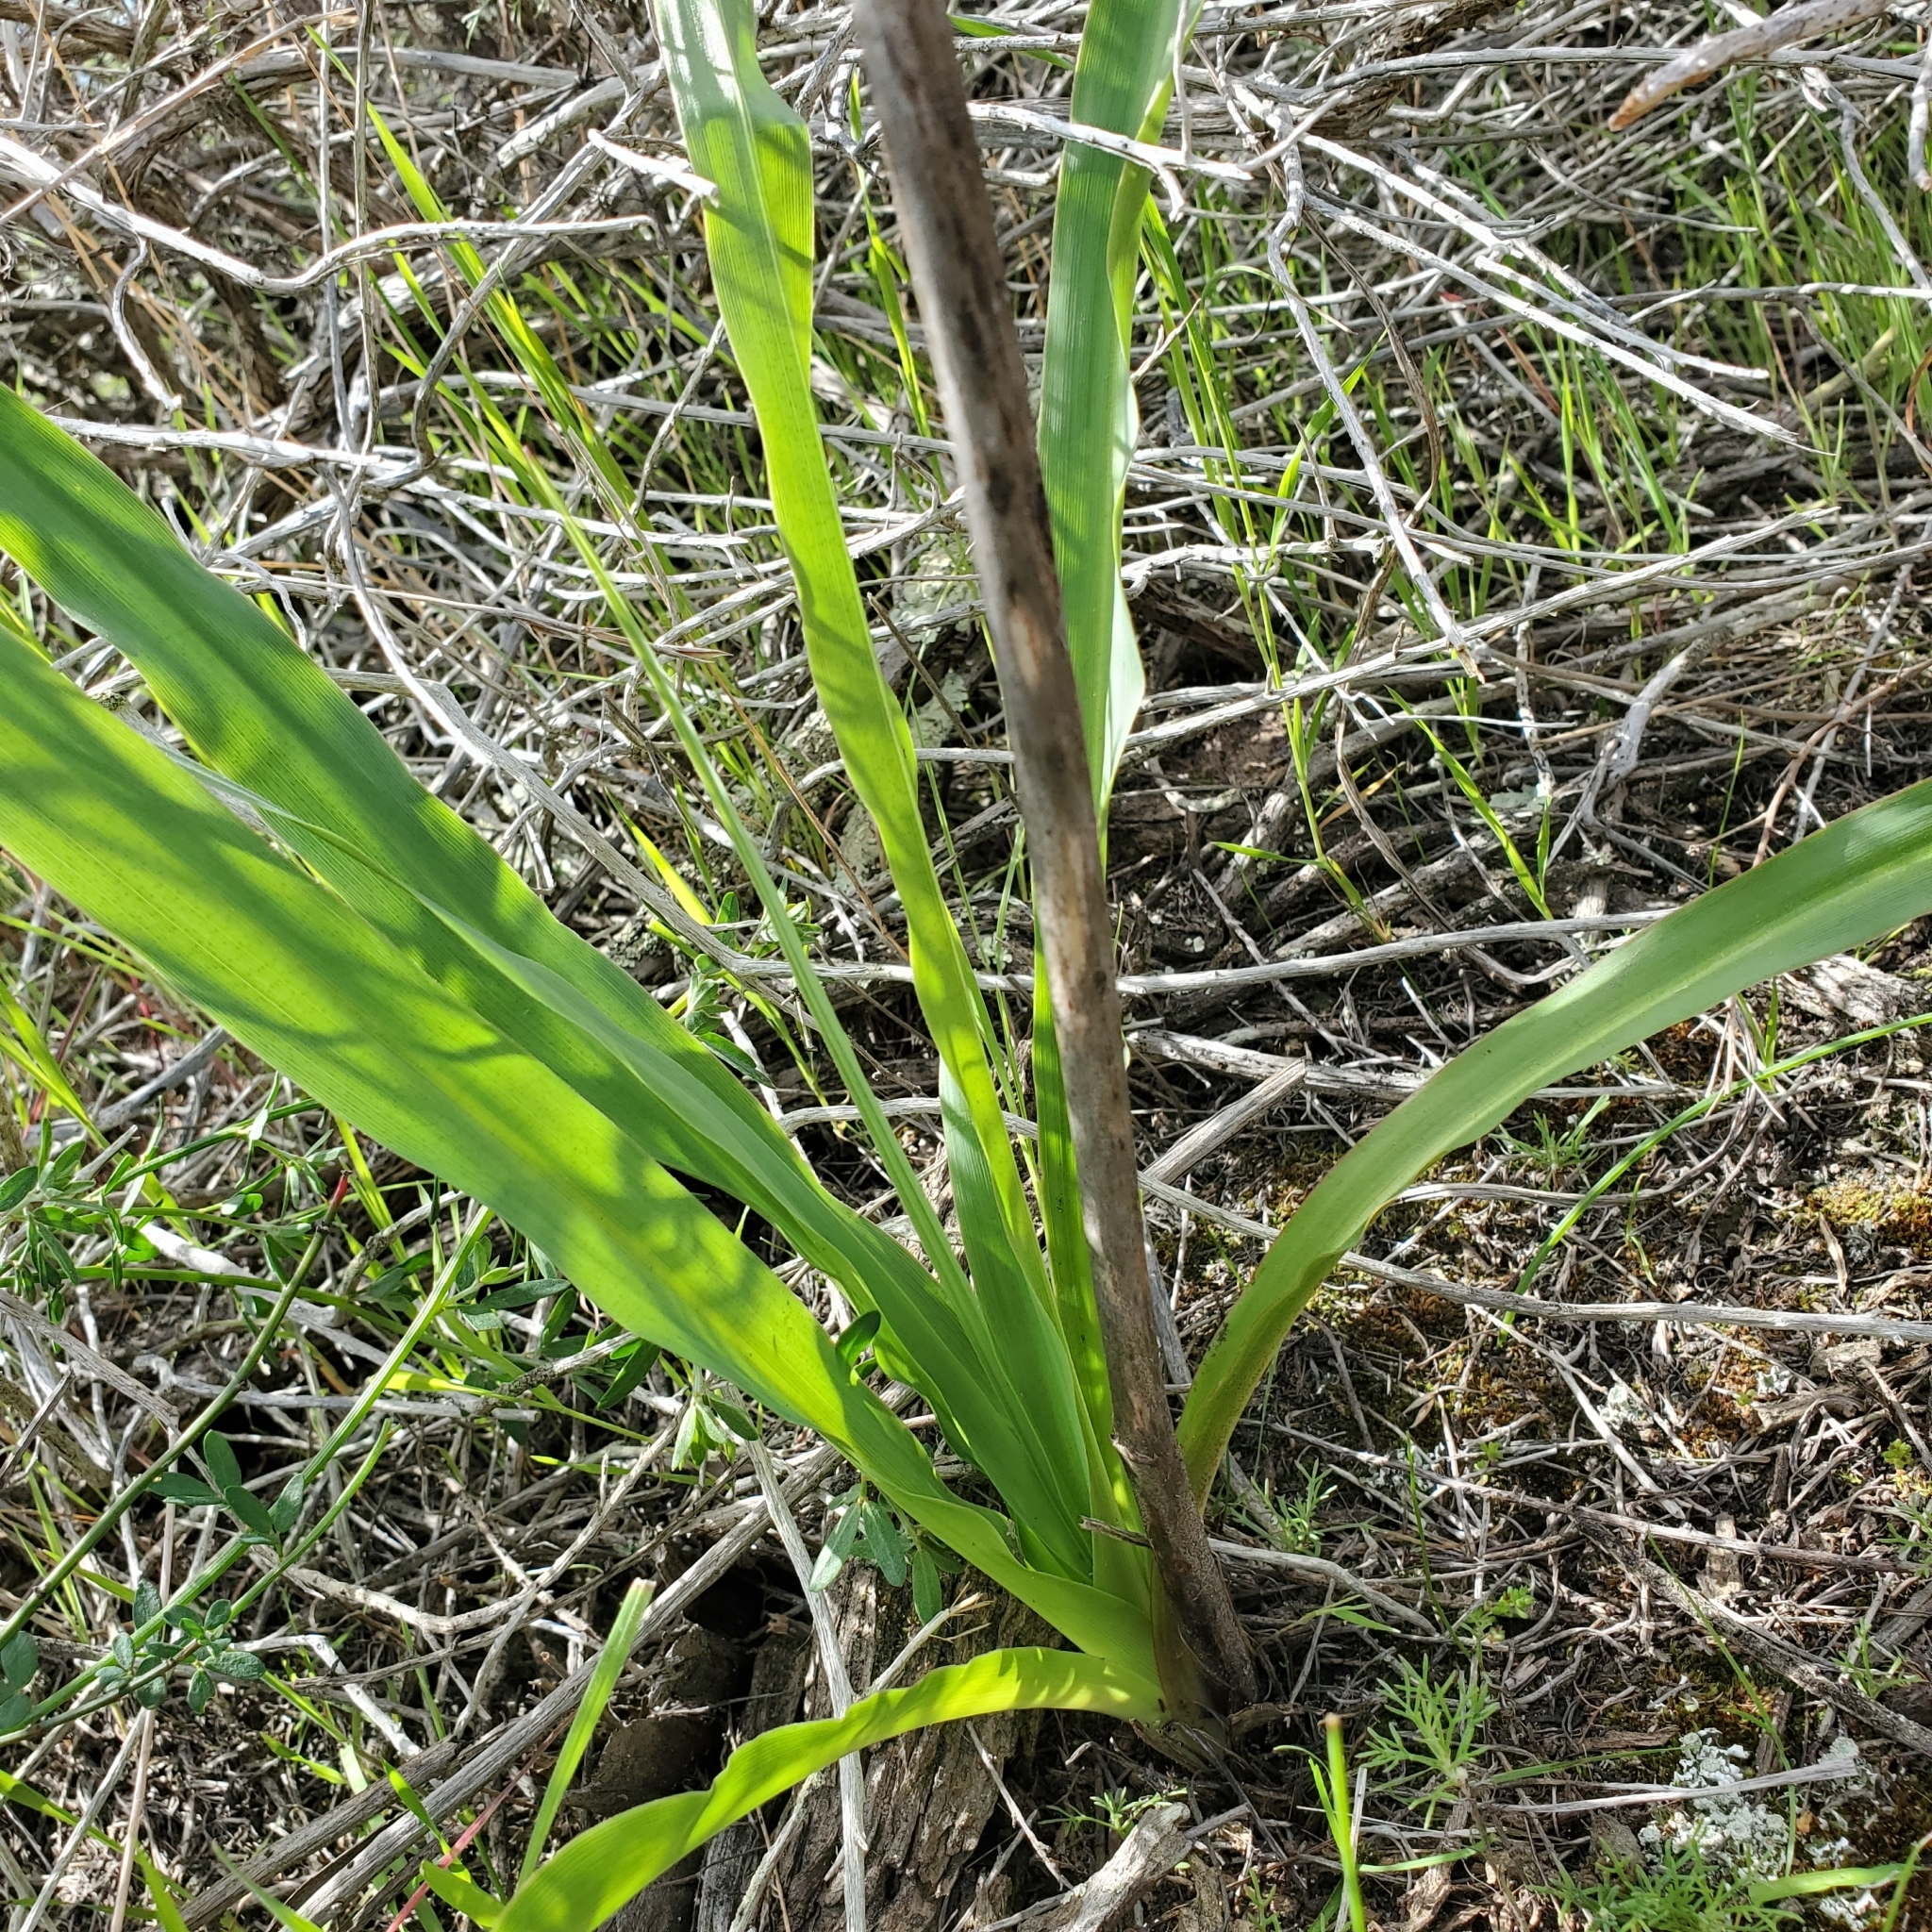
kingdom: Plantae
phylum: Tracheophyta
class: Liliopsida
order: Asparagales
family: Asparagaceae
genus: Chlorogalum
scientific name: Chlorogalum pomeridianum
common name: Amole
